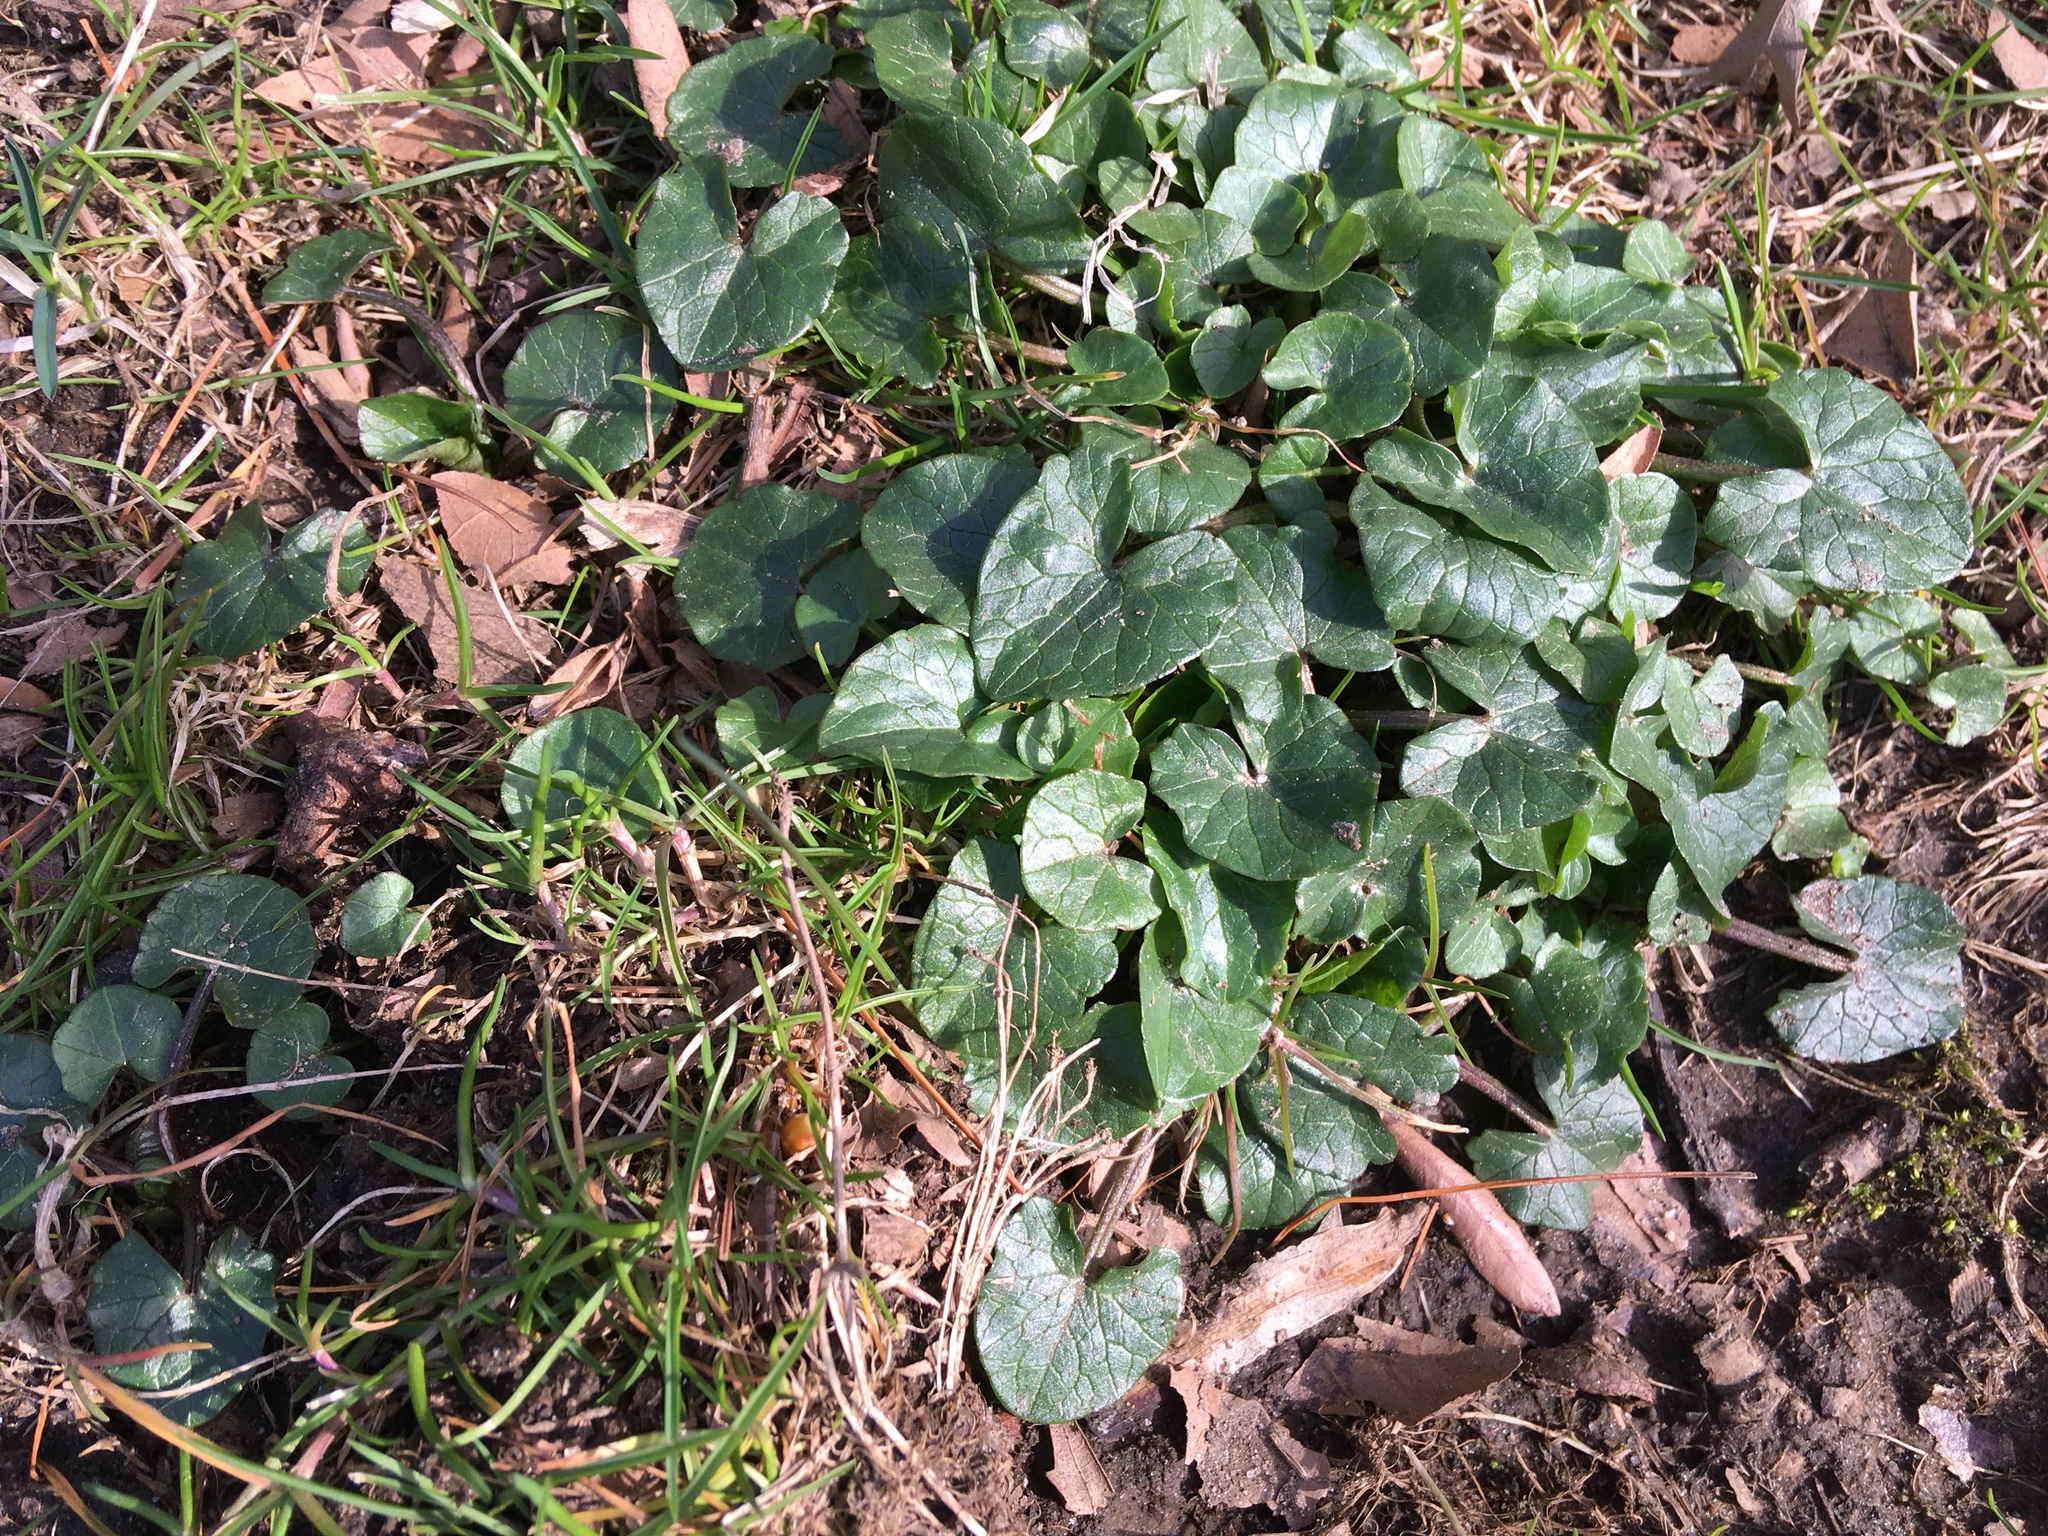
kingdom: Plantae
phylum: Tracheophyta
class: Magnoliopsida
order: Ranunculales
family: Ranunculaceae
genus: Ficaria
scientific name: Ficaria verna
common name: Lesser celandine
